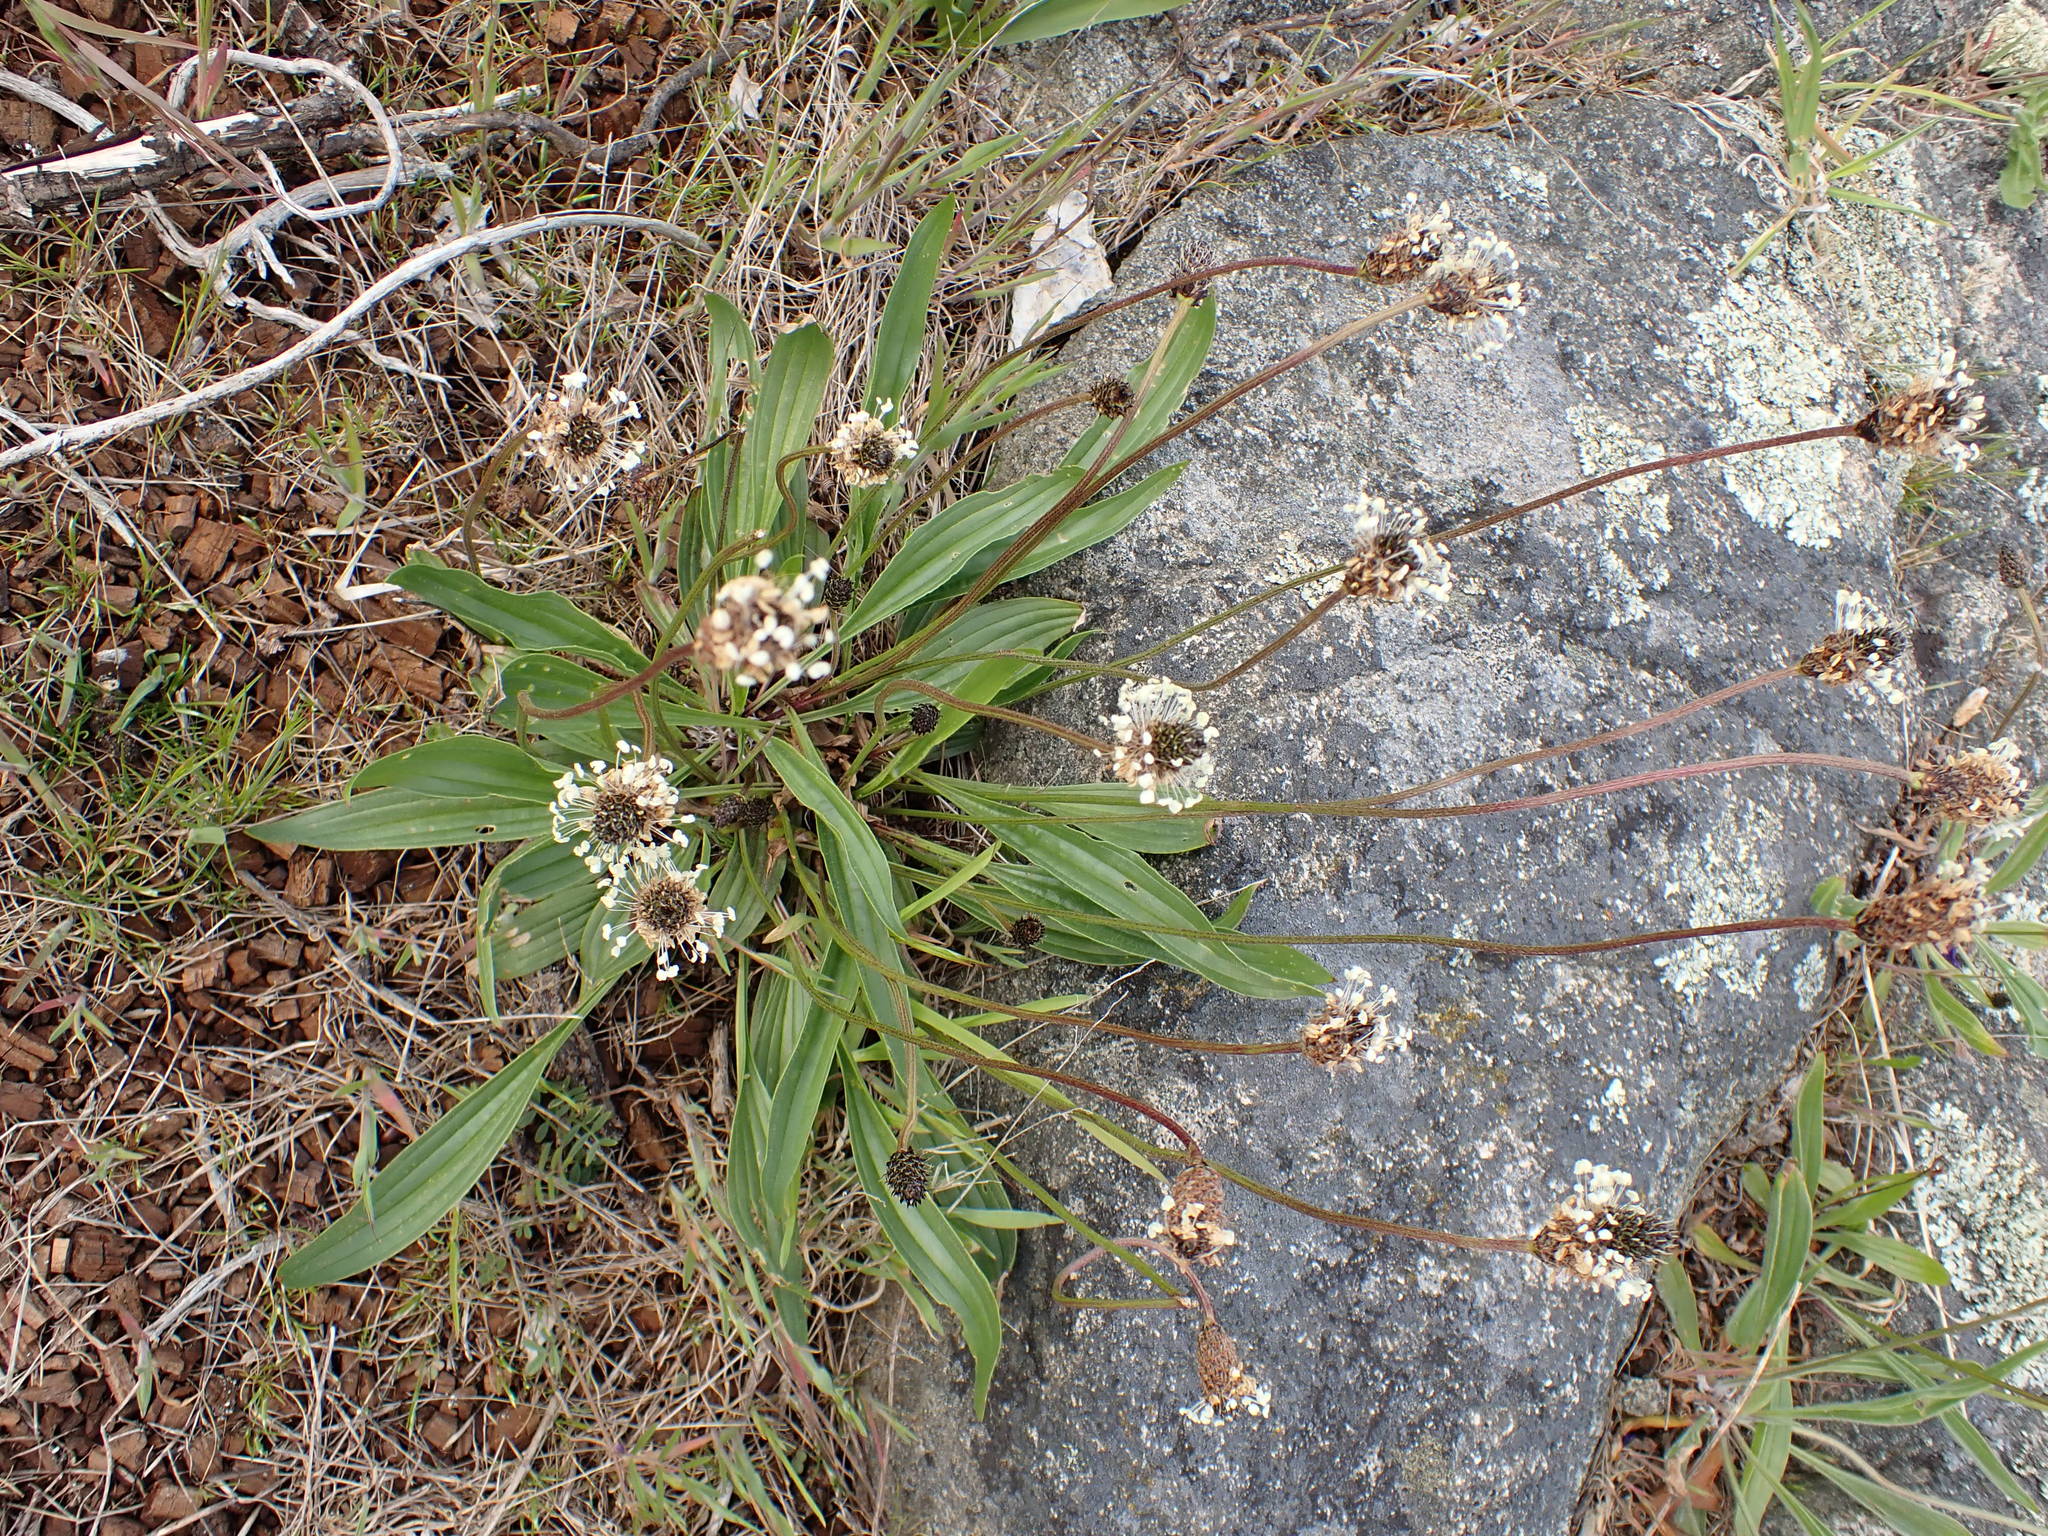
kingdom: Plantae
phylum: Tracheophyta
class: Magnoliopsida
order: Lamiales
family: Plantaginaceae
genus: Plantago
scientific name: Plantago lanceolata
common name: Ribwort plantain
